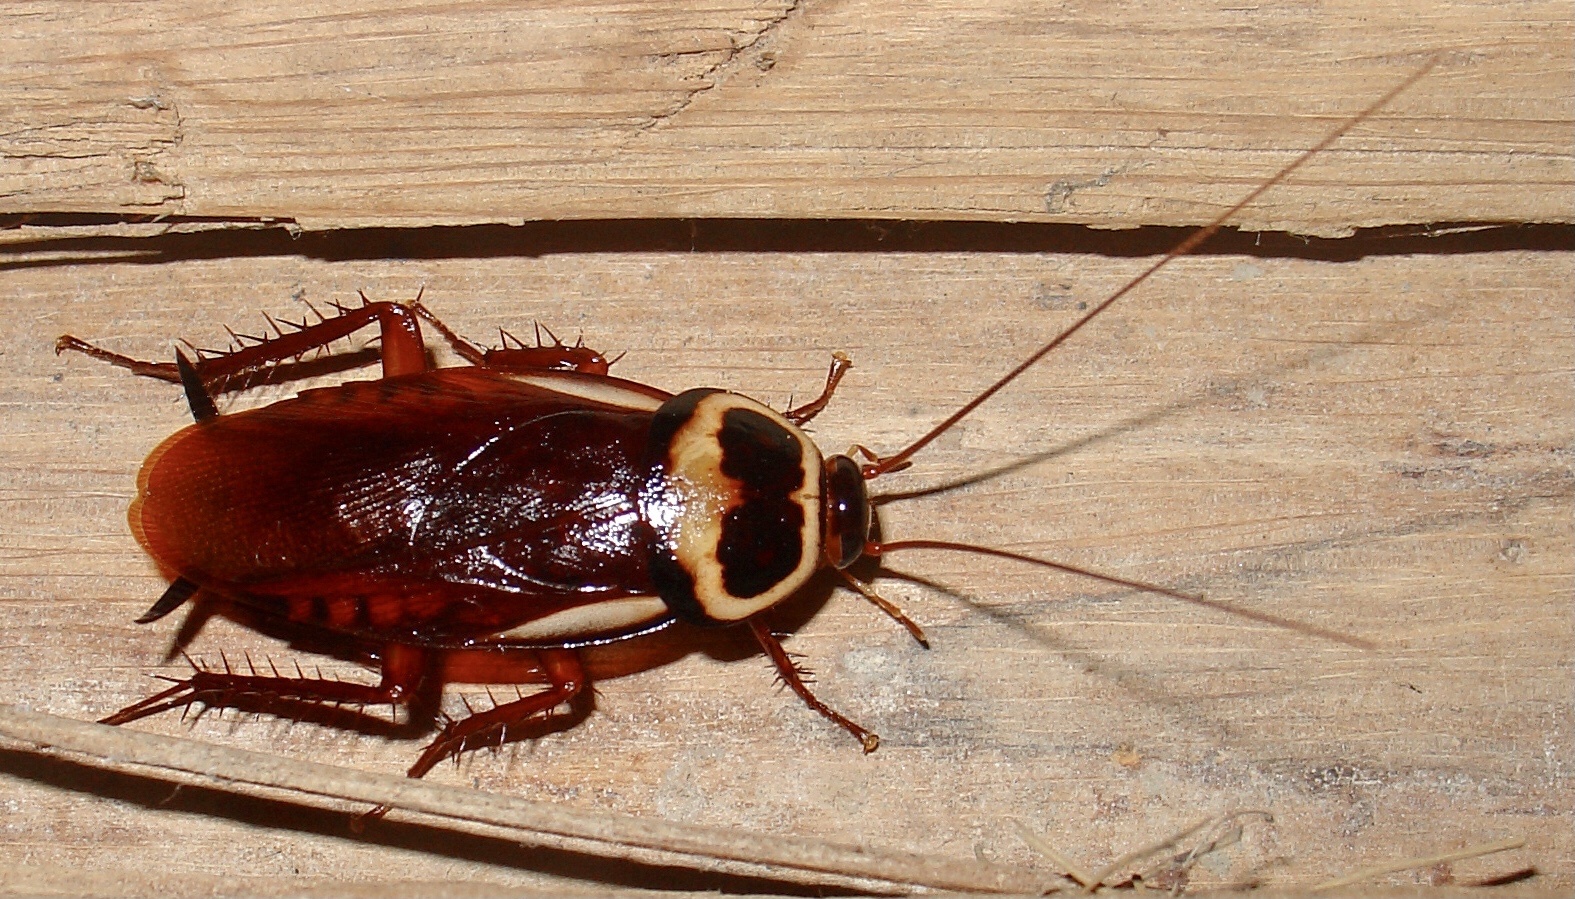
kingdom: Animalia
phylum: Arthropoda
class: Insecta
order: Blattodea
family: Blattidae
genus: Periplaneta
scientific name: Periplaneta australasiae
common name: Australian cockroach
